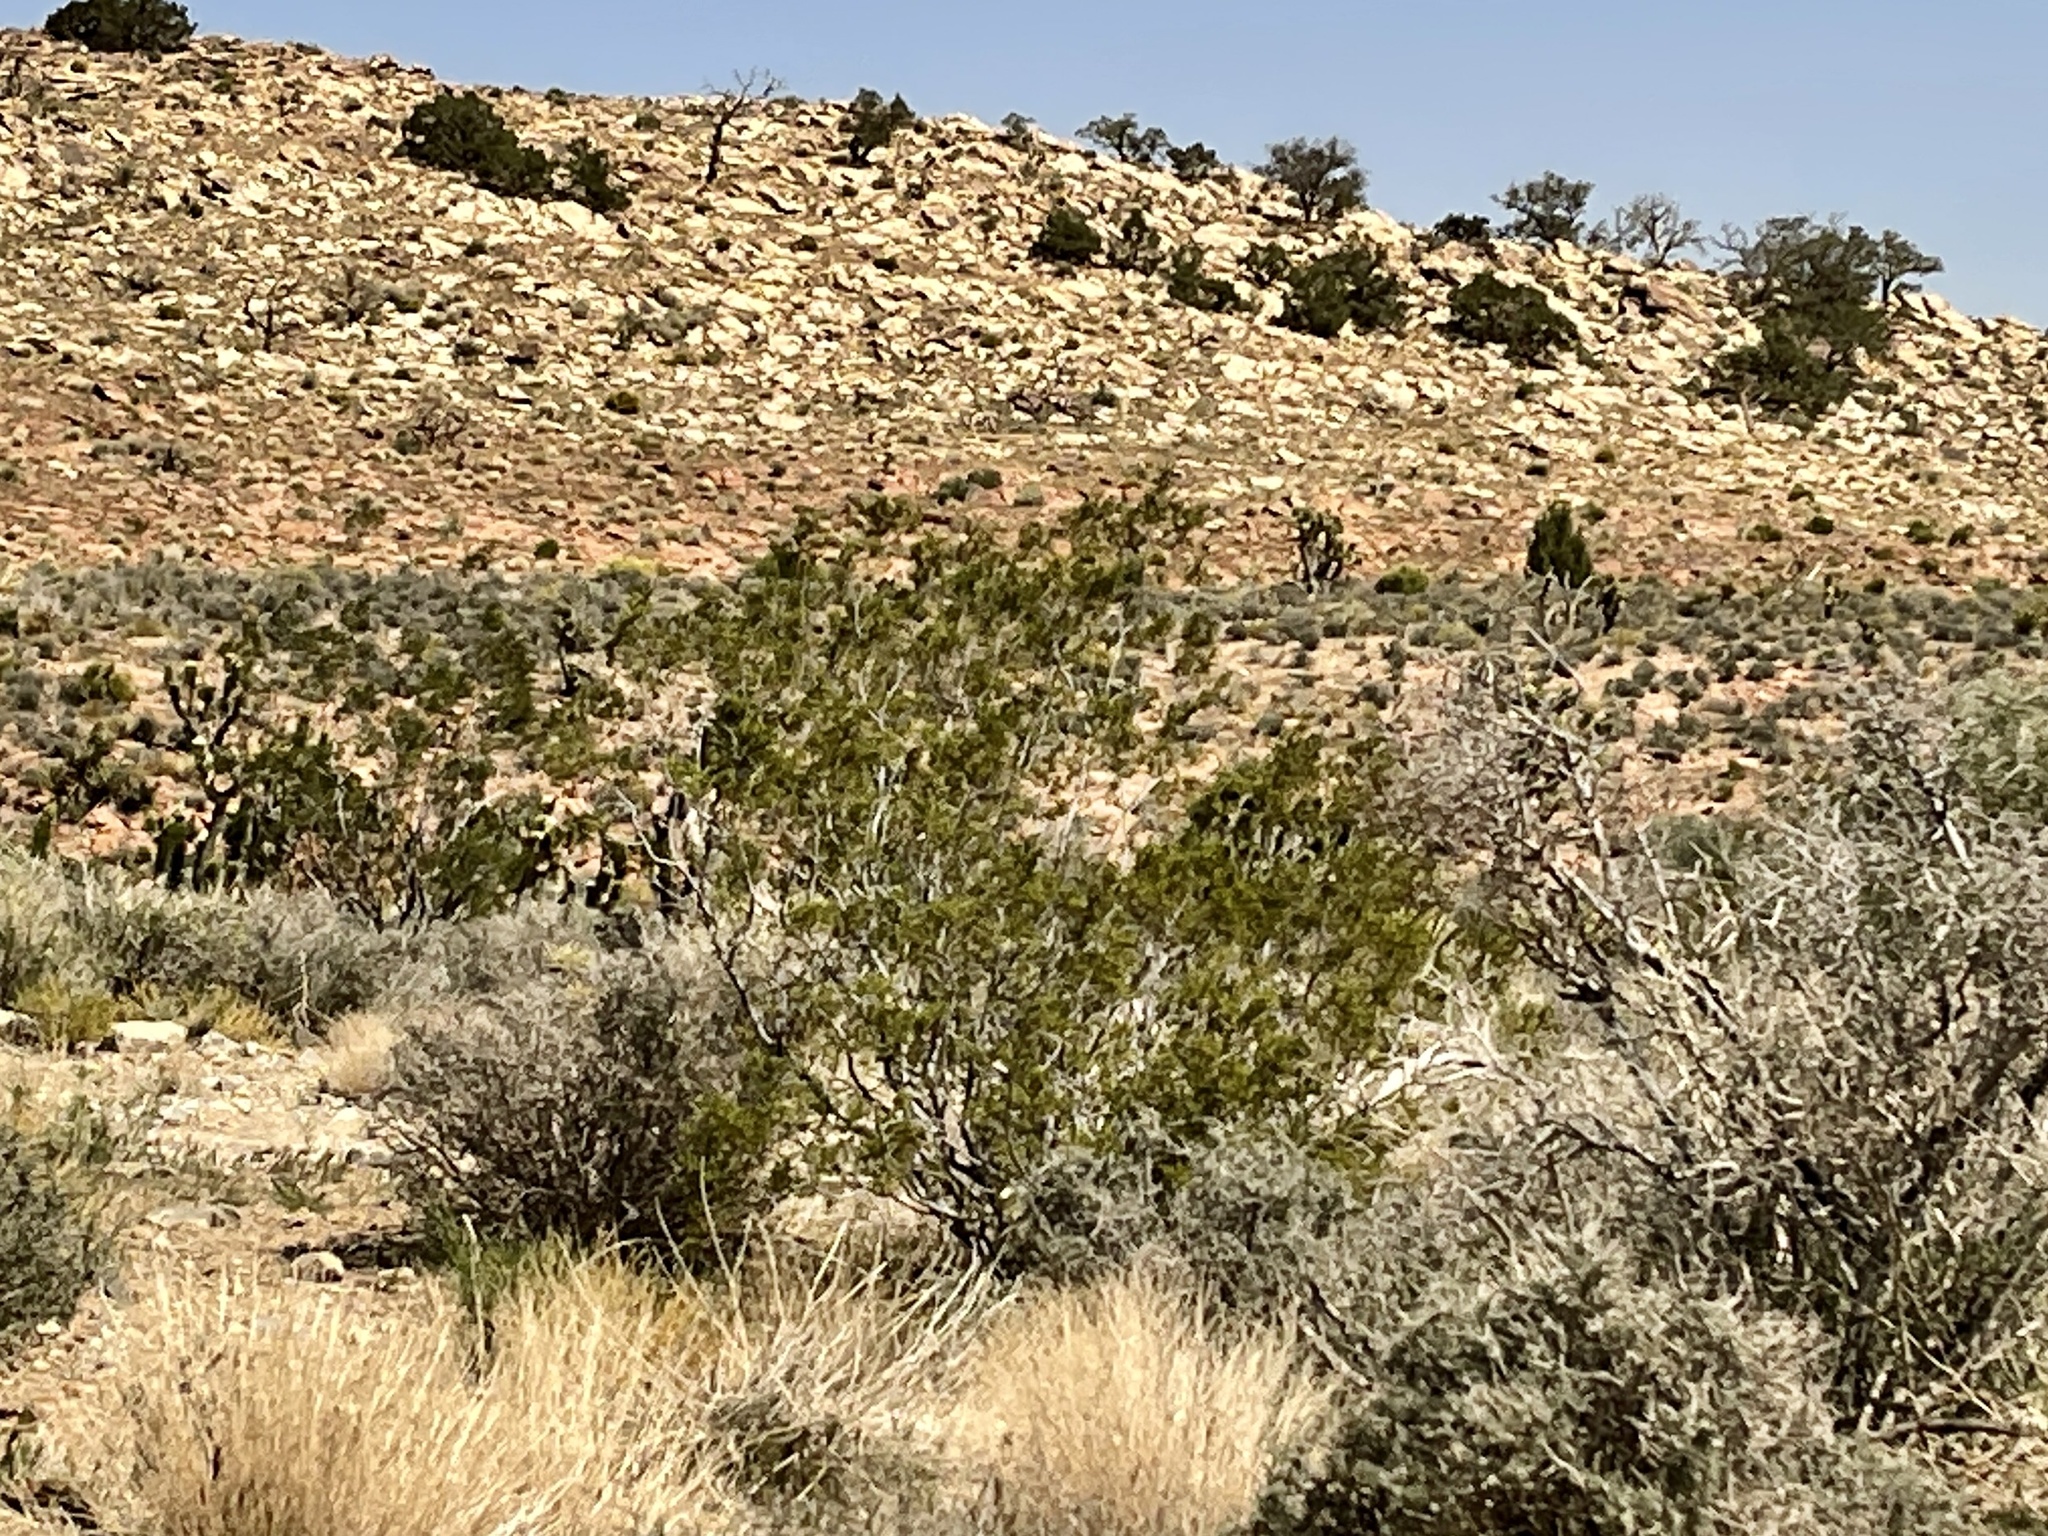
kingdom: Plantae
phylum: Tracheophyta
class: Magnoliopsida
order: Zygophyllales
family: Zygophyllaceae
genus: Larrea
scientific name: Larrea tridentata
